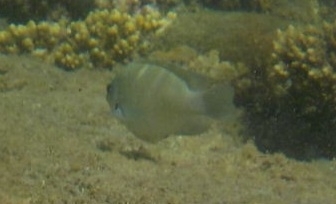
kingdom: Animalia
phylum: Chordata
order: Perciformes
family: Pomacentridae
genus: Chrysiptera
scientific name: Chrysiptera glauca
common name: Grey demoiselle
